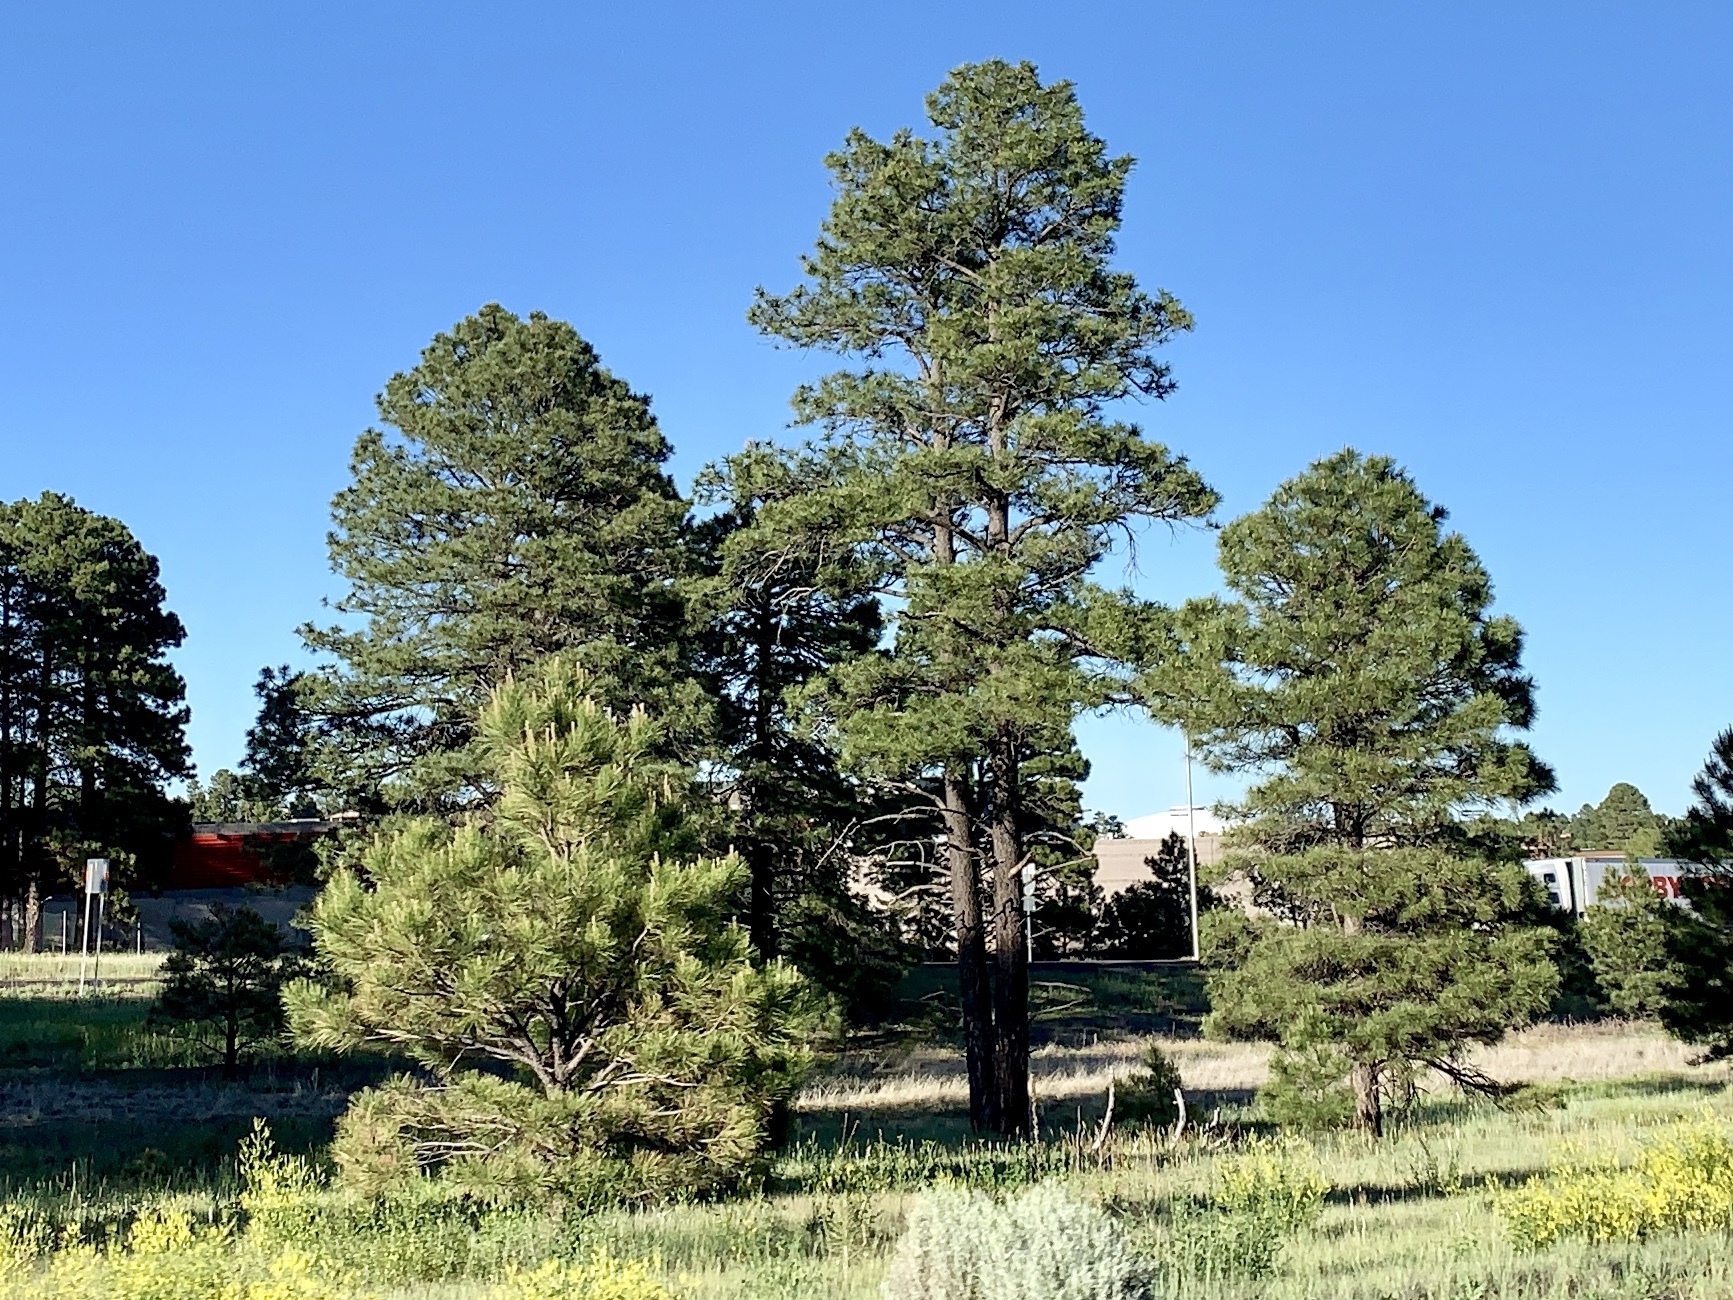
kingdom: Plantae
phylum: Tracheophyta
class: Pinopsida
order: Pinales
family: Pinaceae
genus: Pinus
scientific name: Pinus ponderosa
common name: Western yellow-pine
